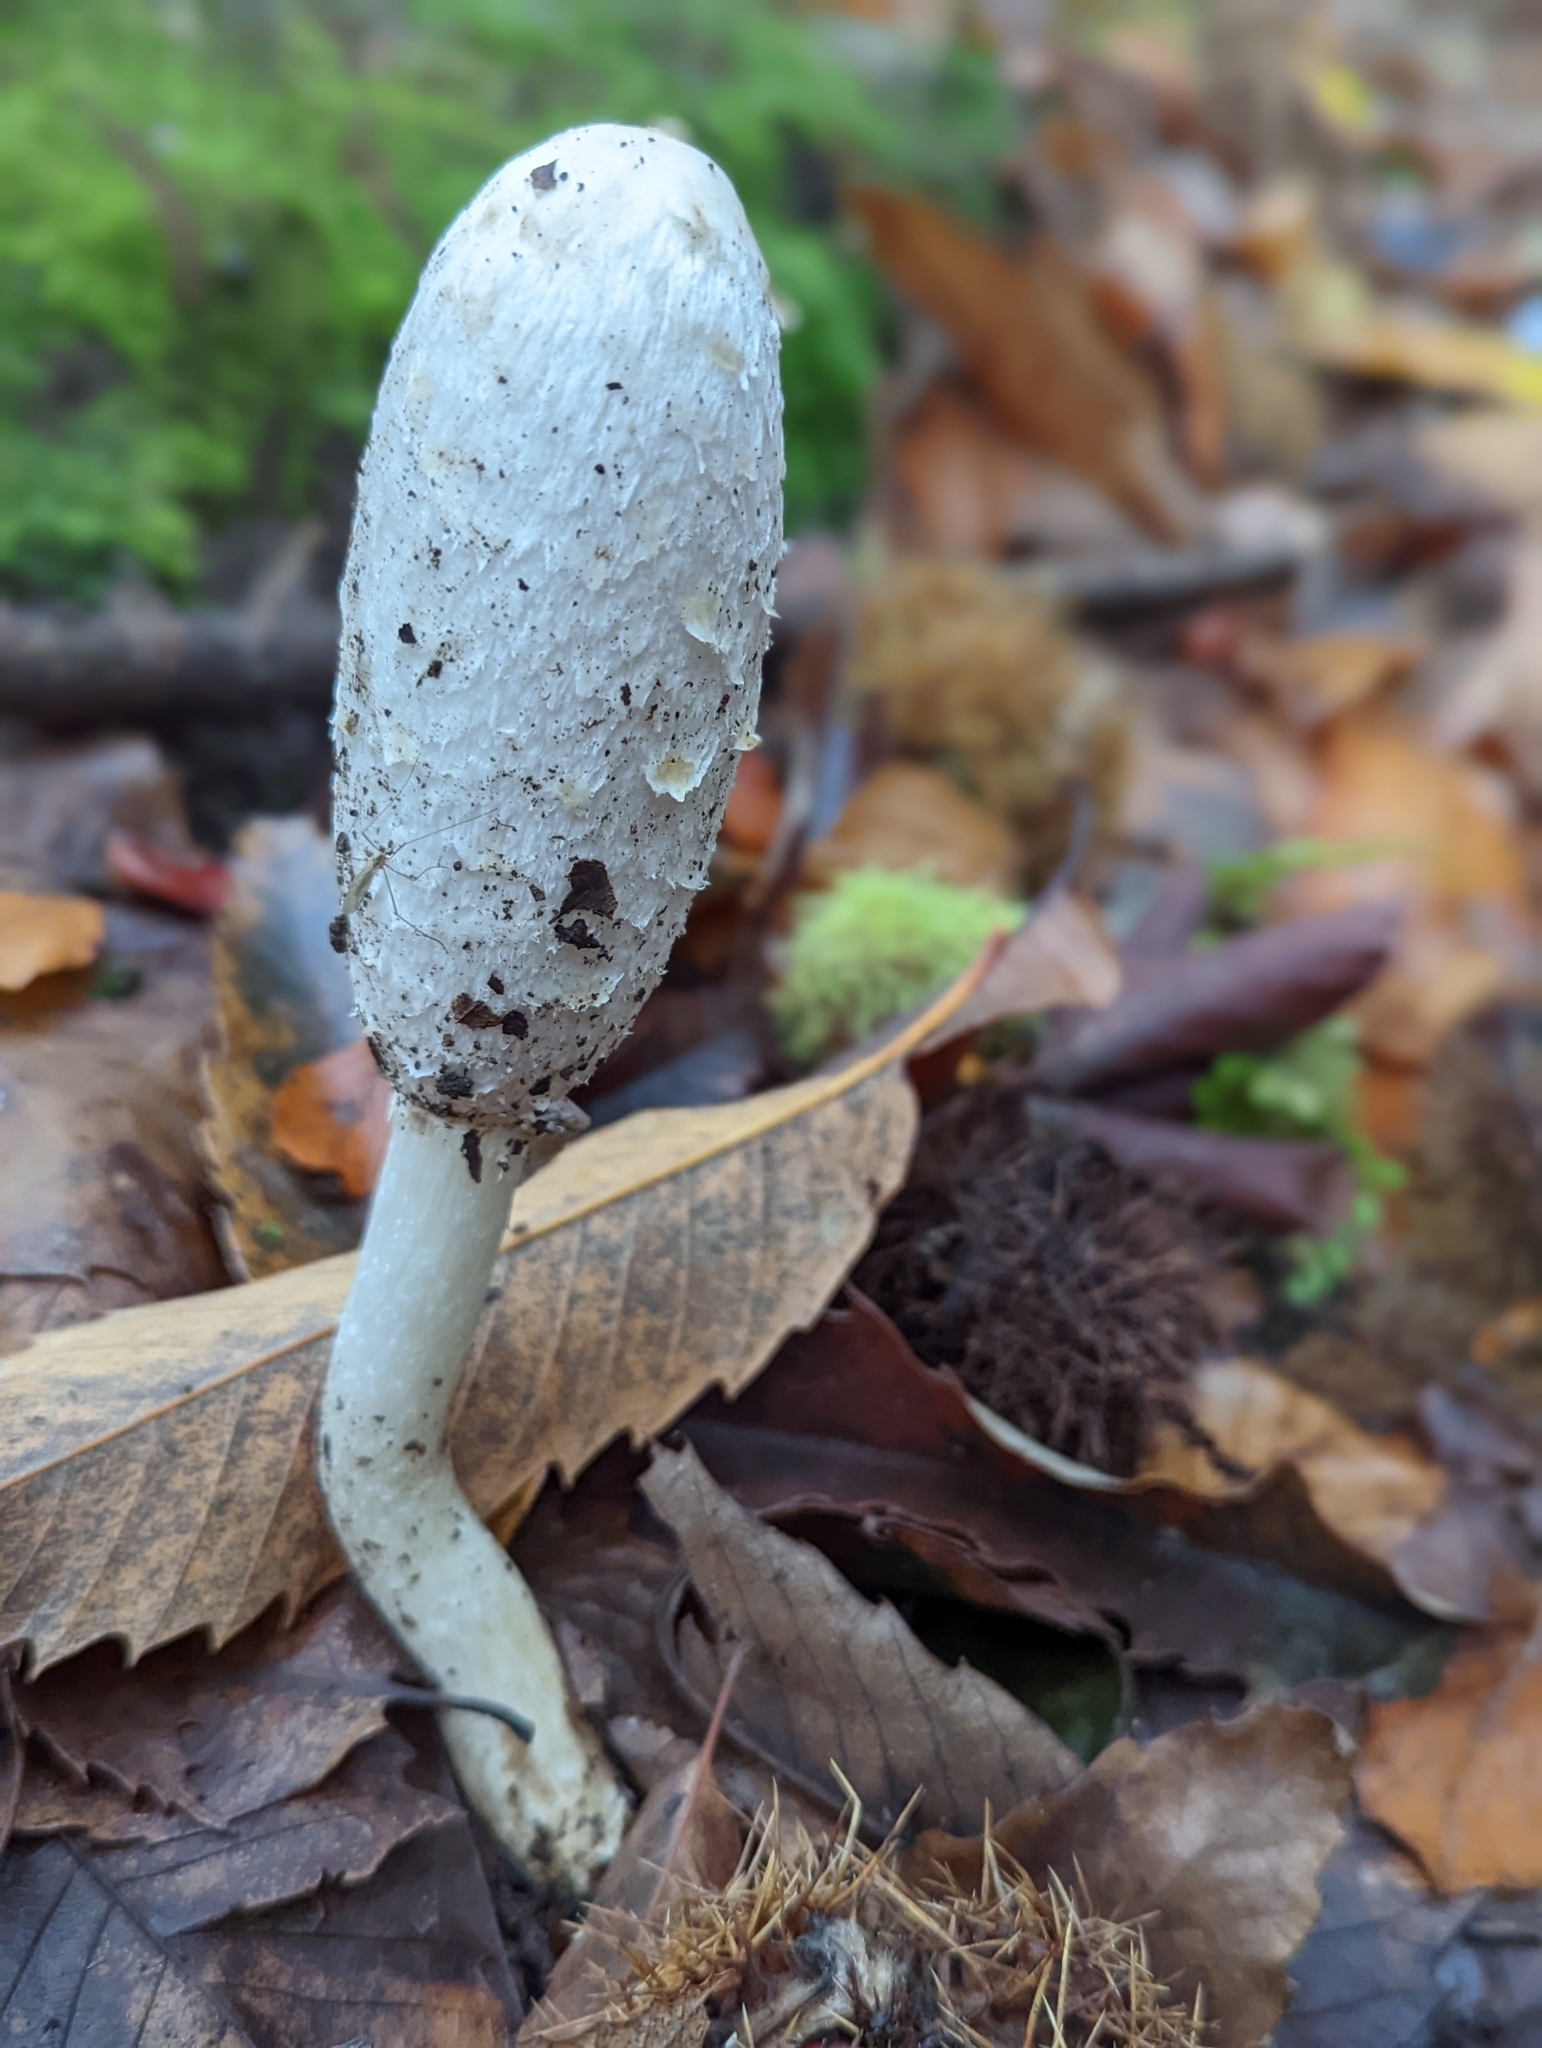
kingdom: Fungi
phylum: Basidiomycota
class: Agaricomycetes
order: Agaricales
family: Agaricaceae
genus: Coprinus
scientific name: Coprinus comatus
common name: Lawyer's wig
